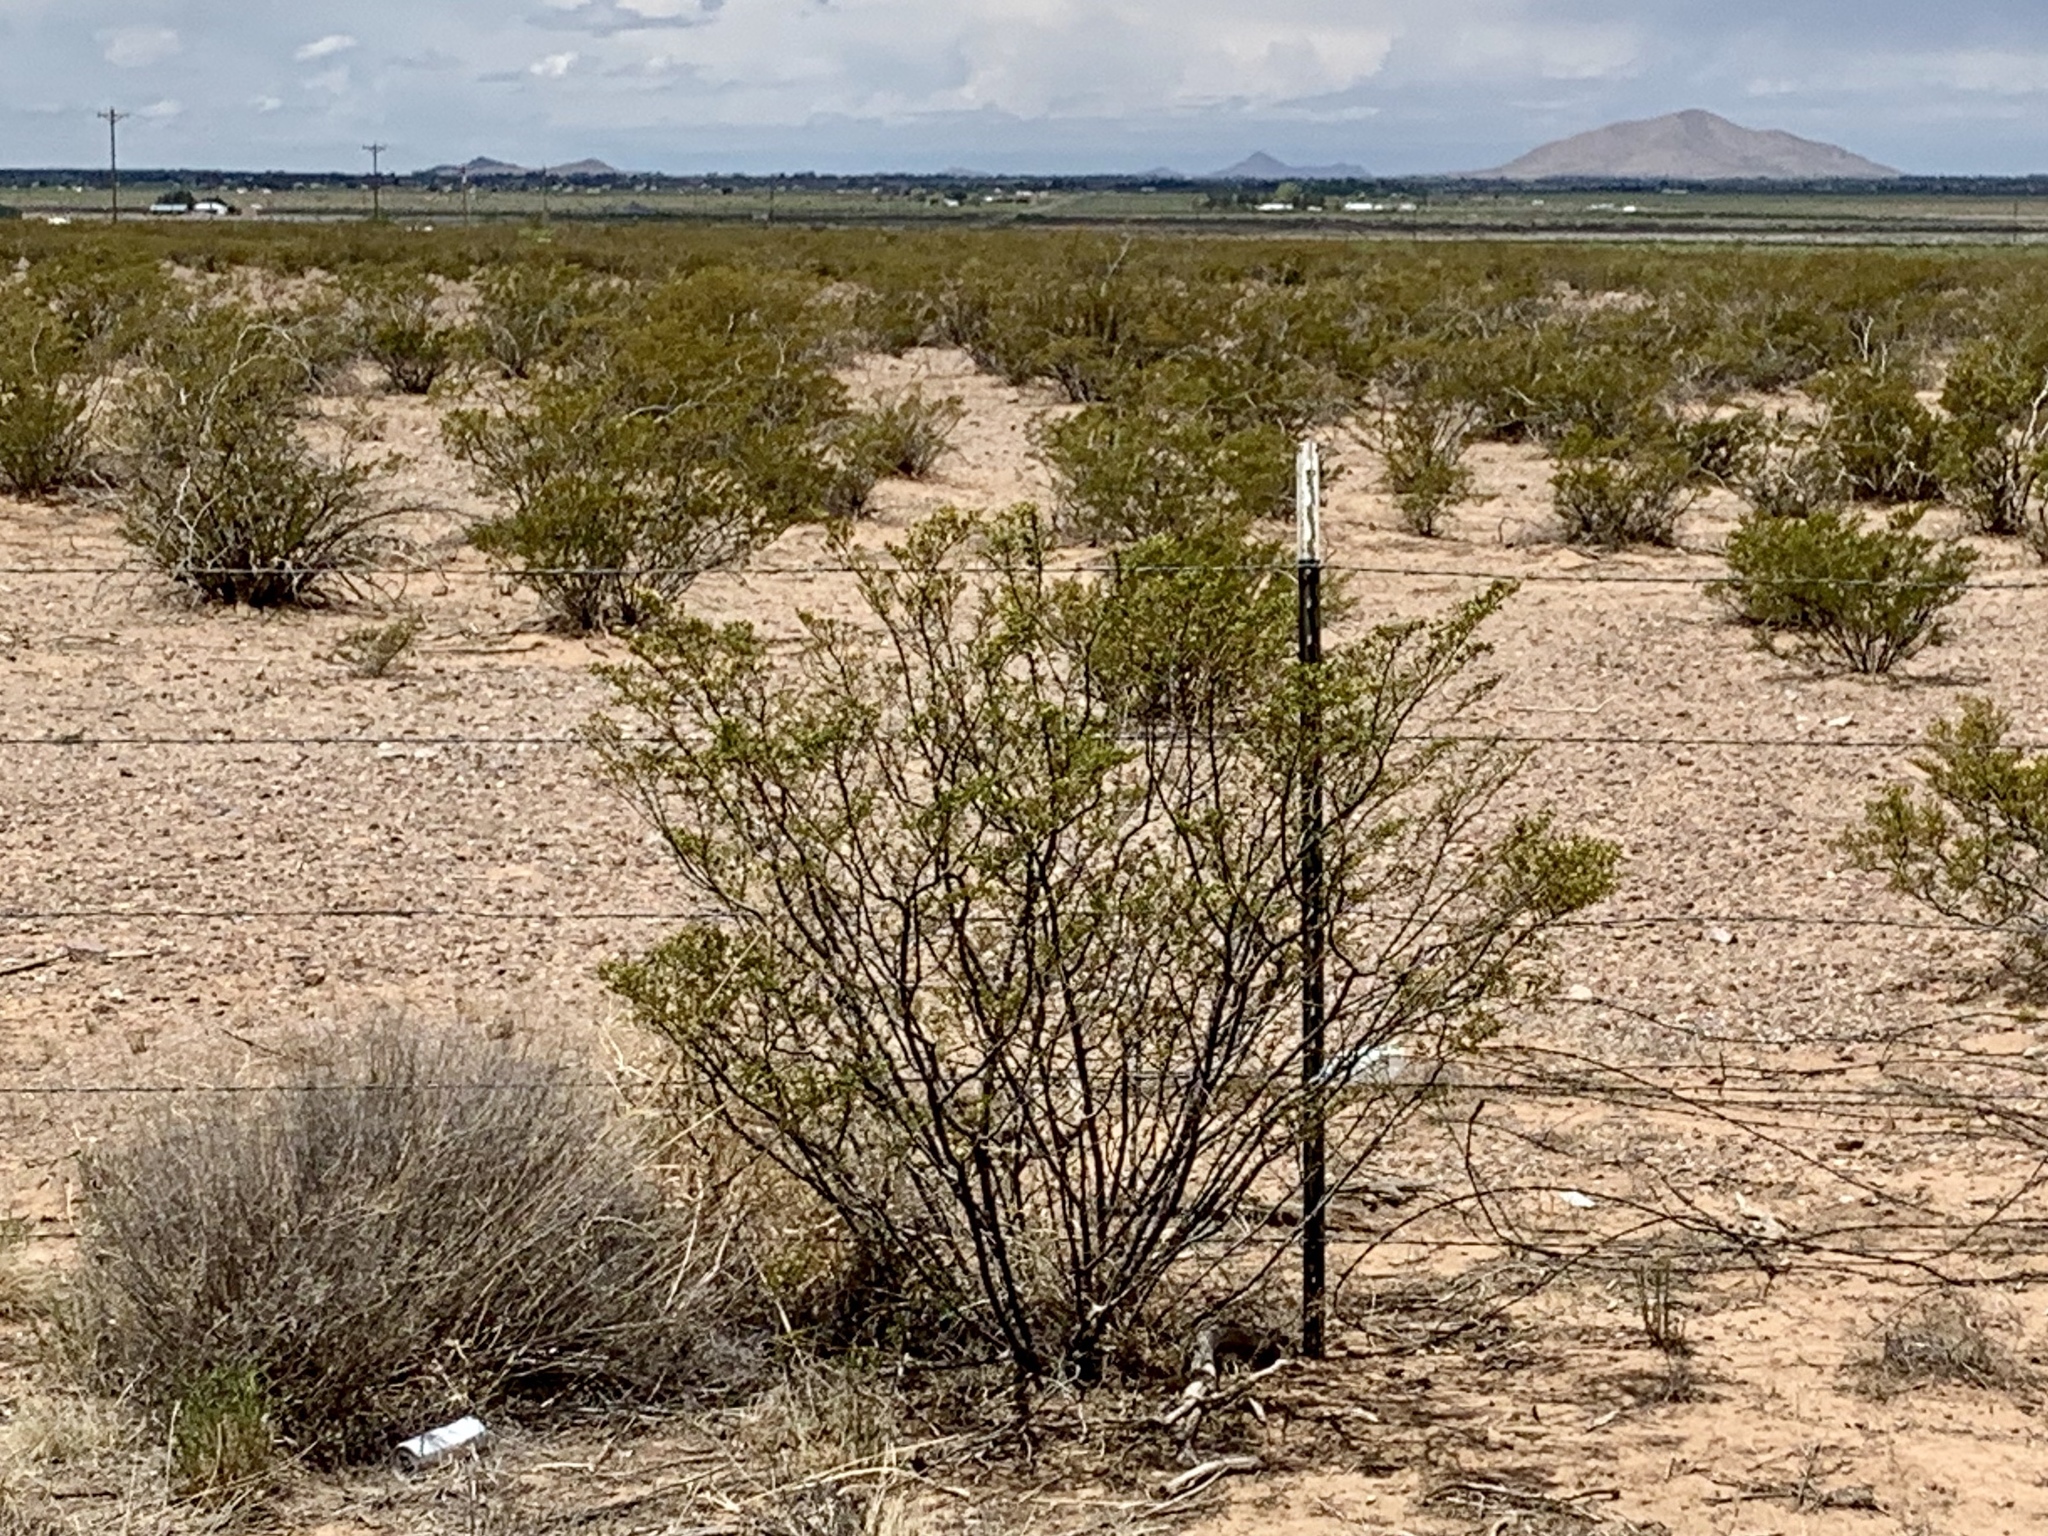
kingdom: Plantae
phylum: Tracheophyta
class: Magnoliopsida
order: Zygophyllales
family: Zygophyllaceae
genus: Larrea
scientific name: Larrea tridentata
